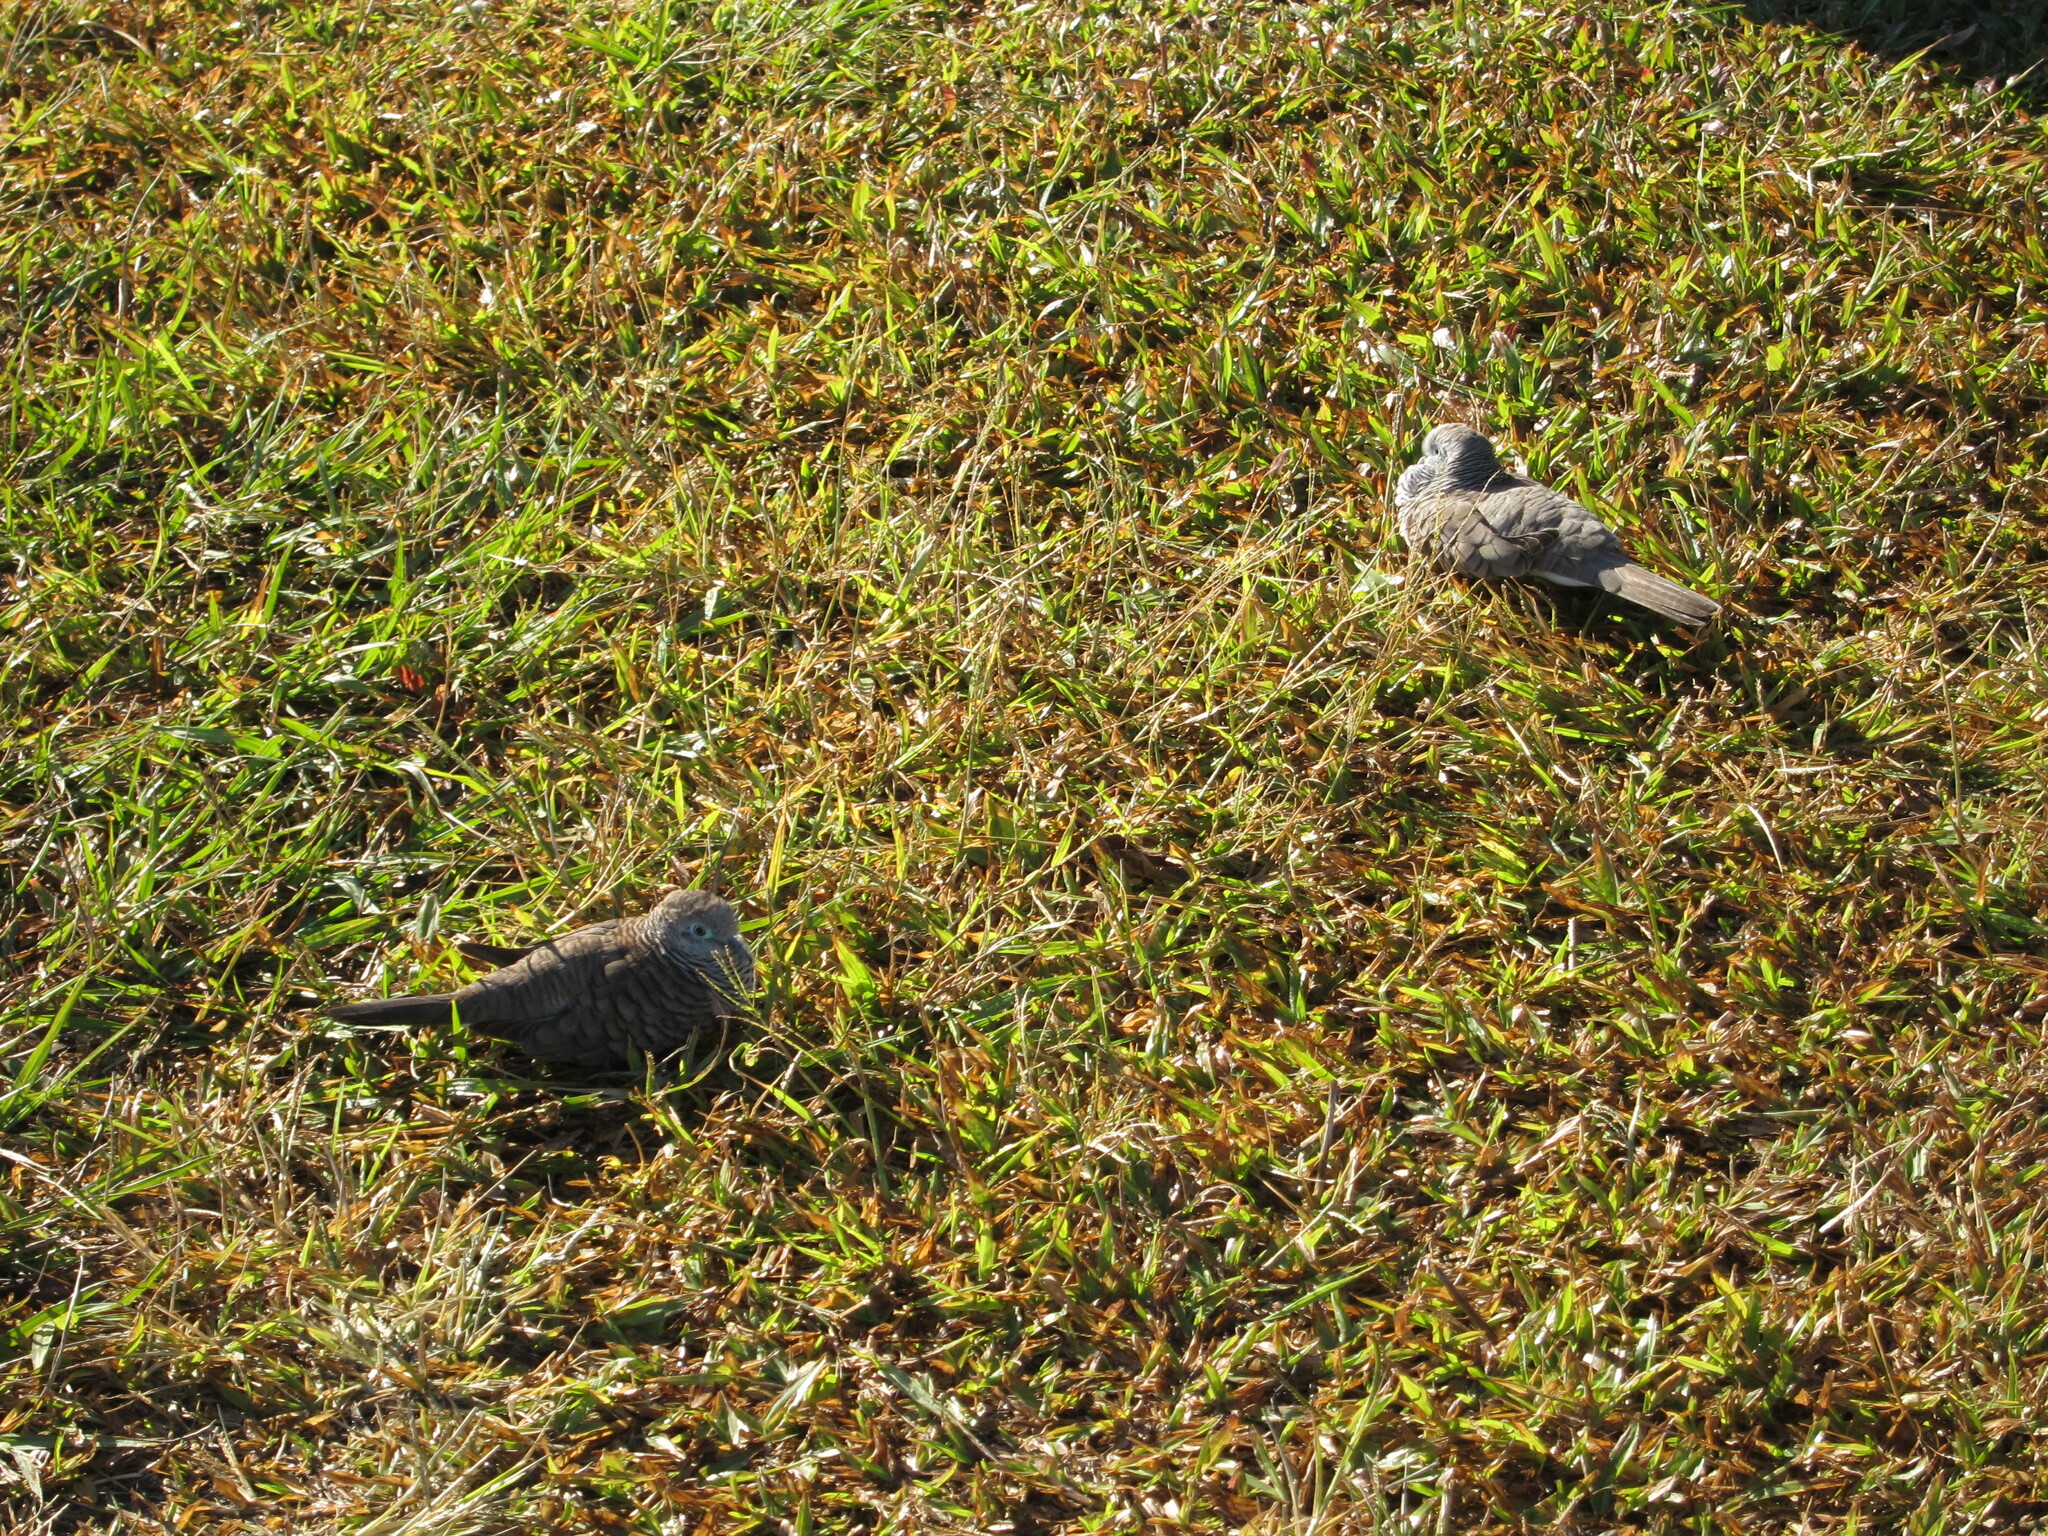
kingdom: Animalia
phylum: Chordata
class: Aves
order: Columbiformes
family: Columbidae
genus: Geopelia
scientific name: Geopelia placida
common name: Peaceful dove
